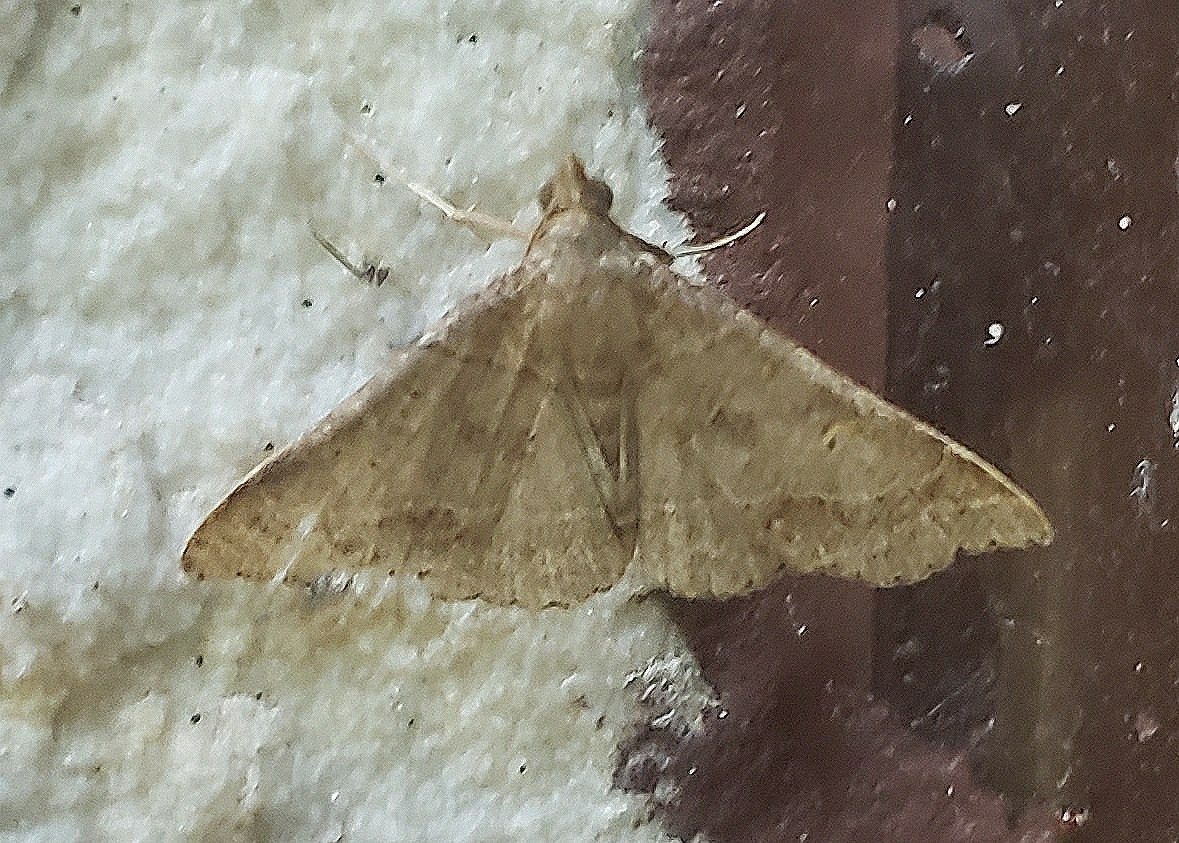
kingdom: Animalia
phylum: Arthropoda
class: Insecta
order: Lepidoptera
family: Erebidae
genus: Renia
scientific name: Renia flavipunctalis
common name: Yellow-spotted renia moth
